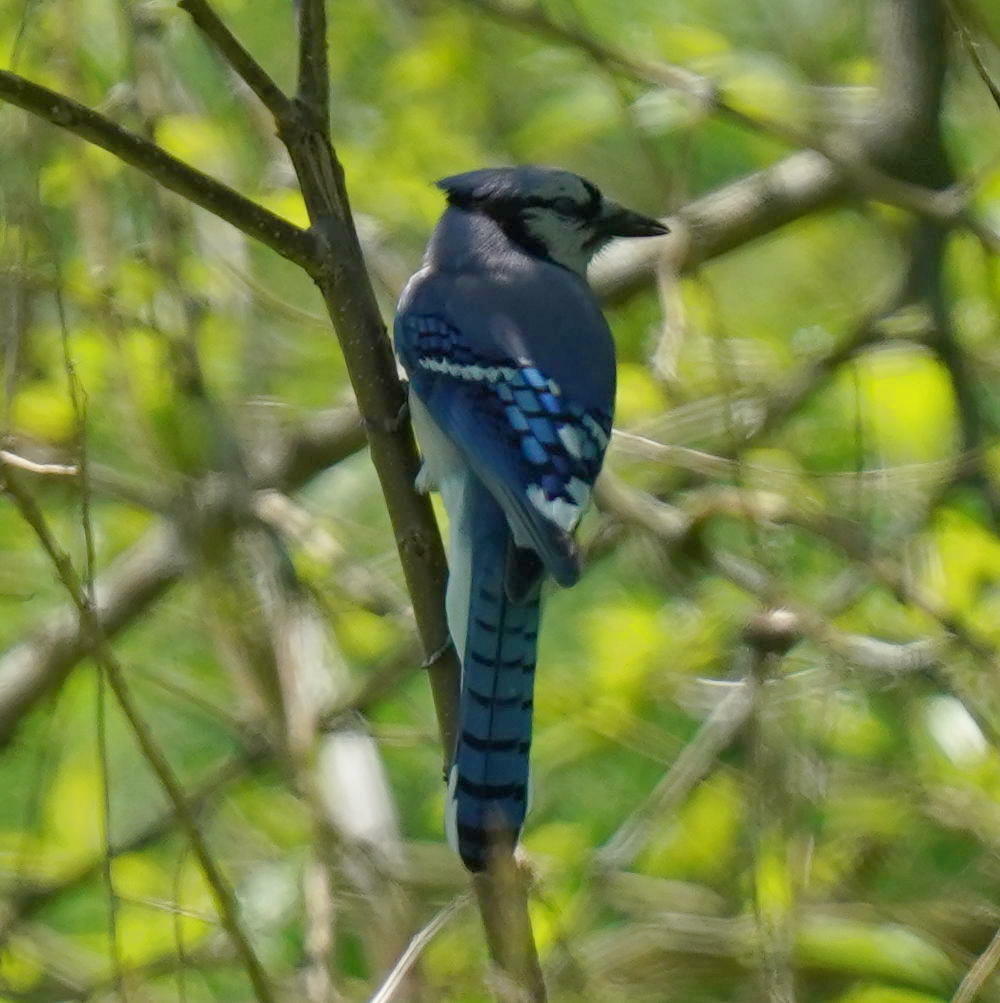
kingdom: Animalia
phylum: Chordata
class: Aves
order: Passeriformes
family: Corvidae
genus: Cyanocitta
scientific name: Cyanocitta cristata
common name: Blue jay
